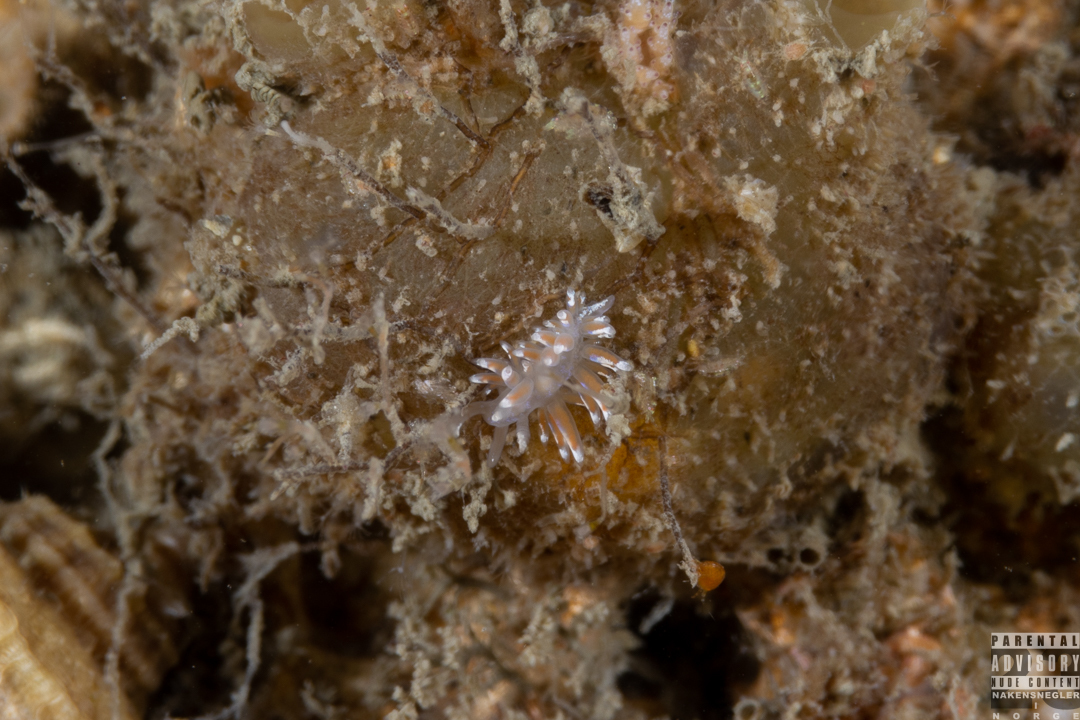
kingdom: Animalia
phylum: Mollusca
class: Gastropoda
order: Nudibranchia
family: Facelinidae
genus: Facelina
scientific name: Facelina auriculata
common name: Slender facelina
